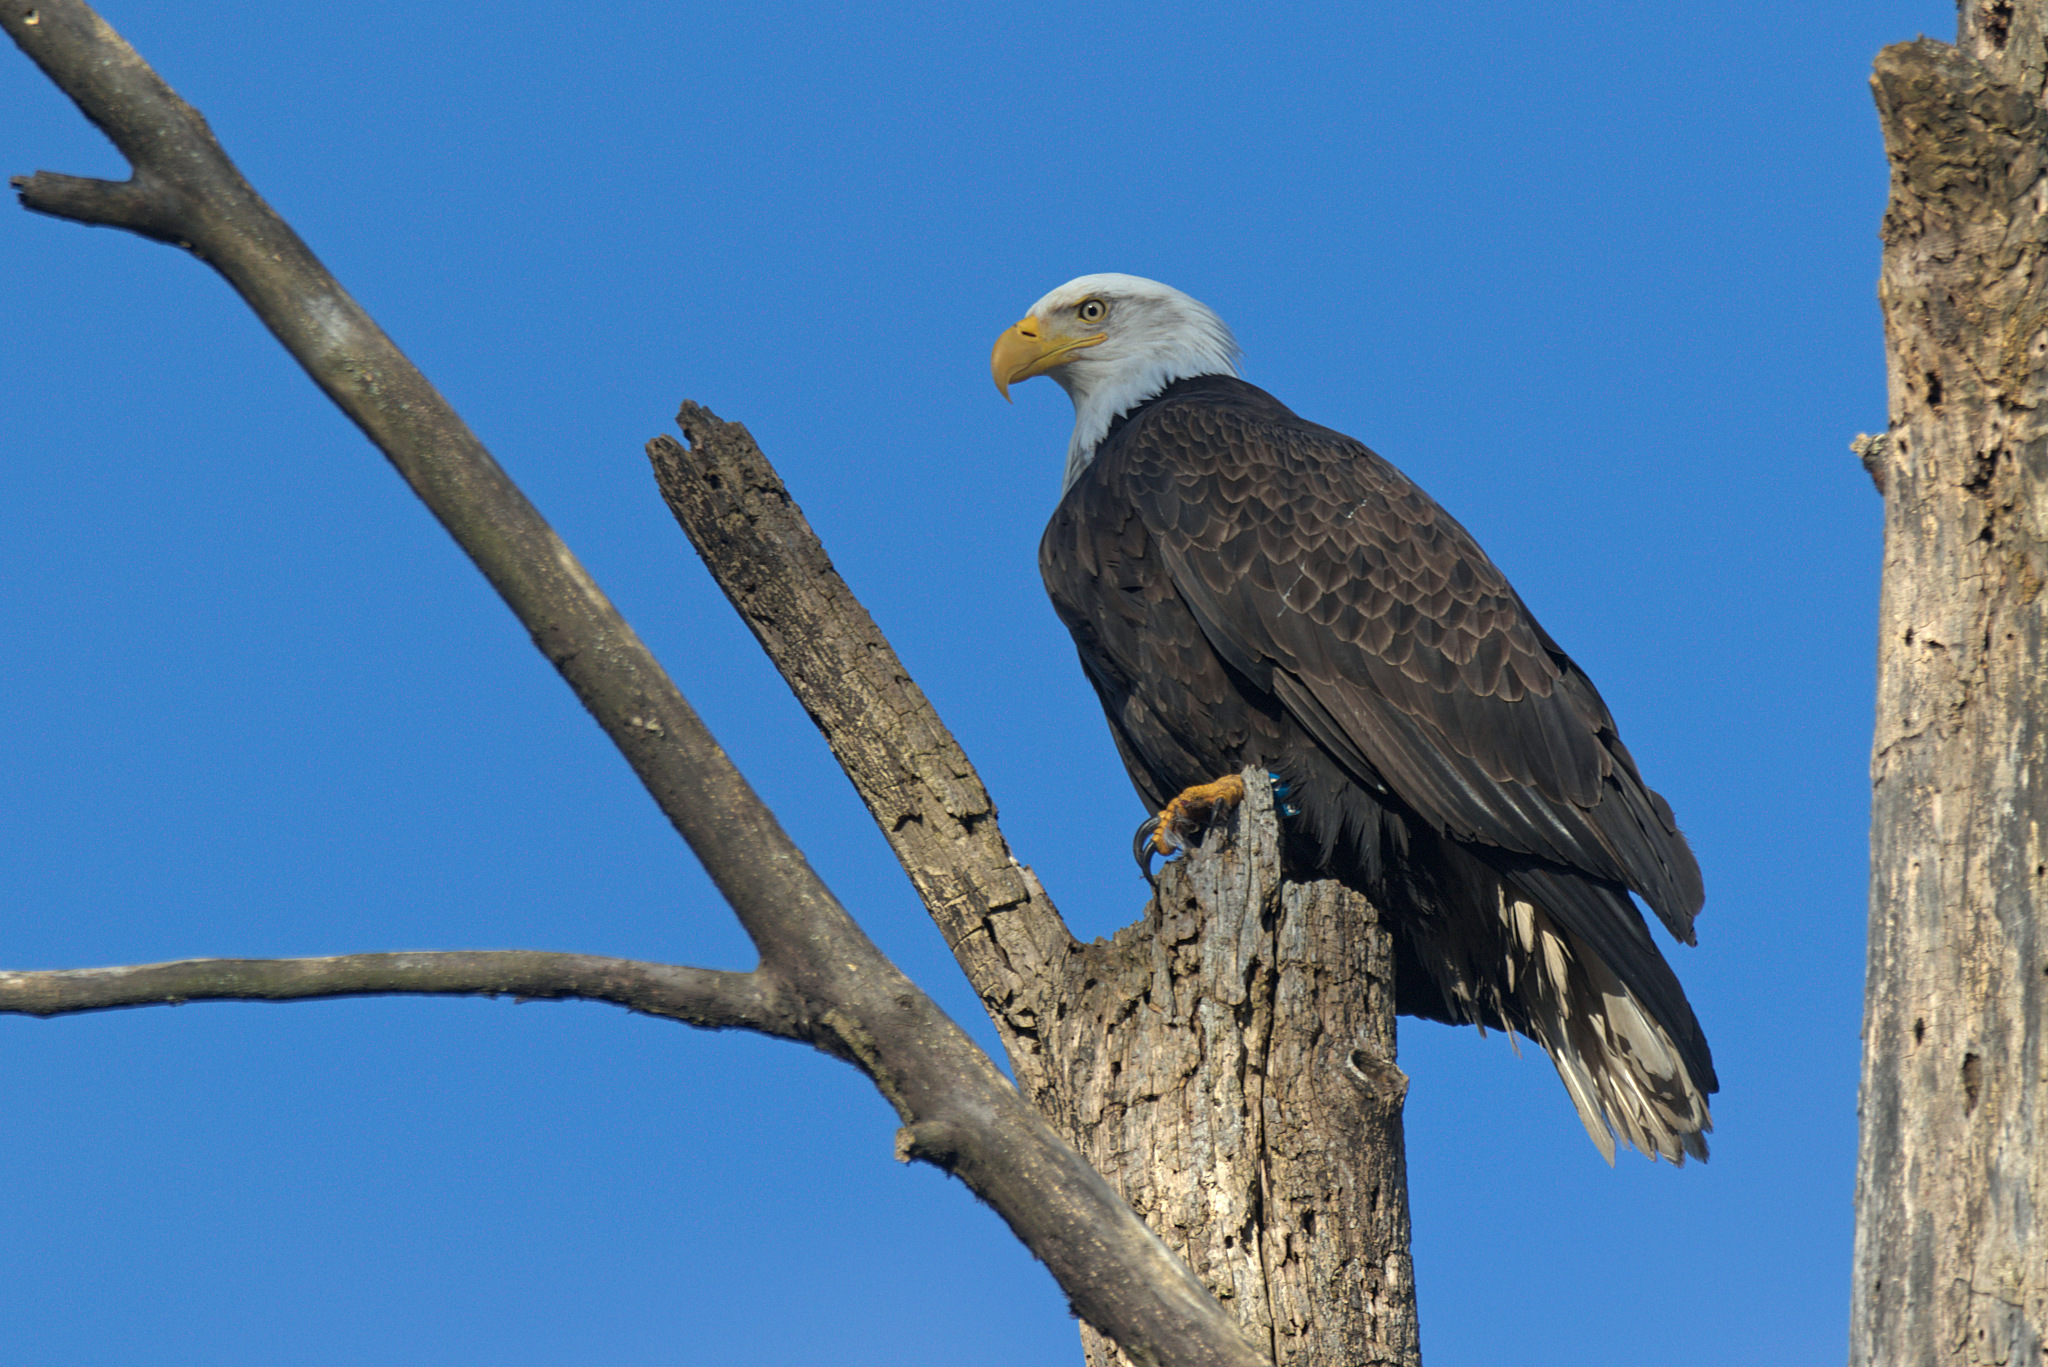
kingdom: Animalia
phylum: Chordata
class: Aves
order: Accipitriformes
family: Accipitridae
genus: Haliaeetus
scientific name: Haliaeetus leucocephalus
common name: Bald eagle
